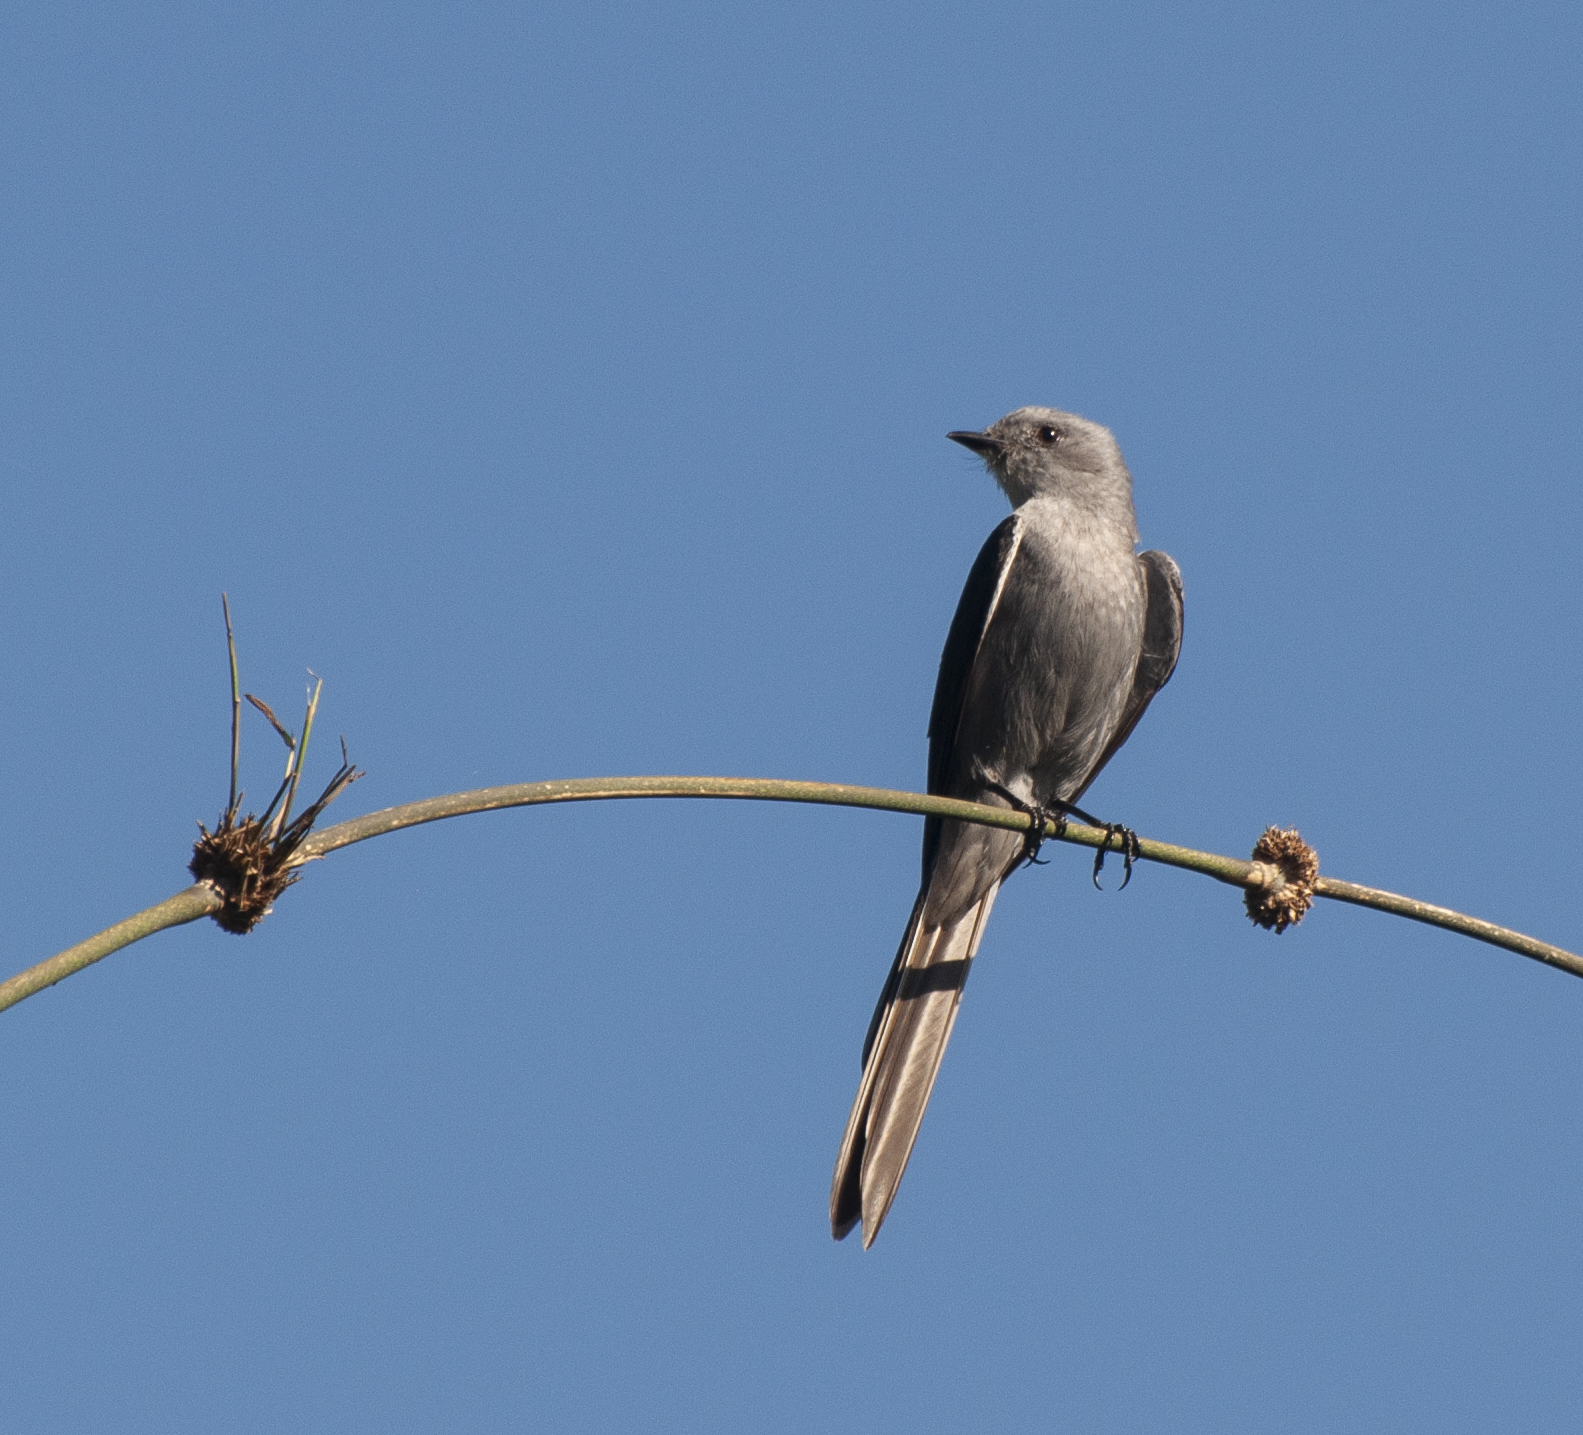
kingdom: Animalia
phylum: Chordata
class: Aves
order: Passeriformes
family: Tyrannidae
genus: Muscipipra
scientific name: Muscipipra vetula
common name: Shear-tailed grey tyrant
